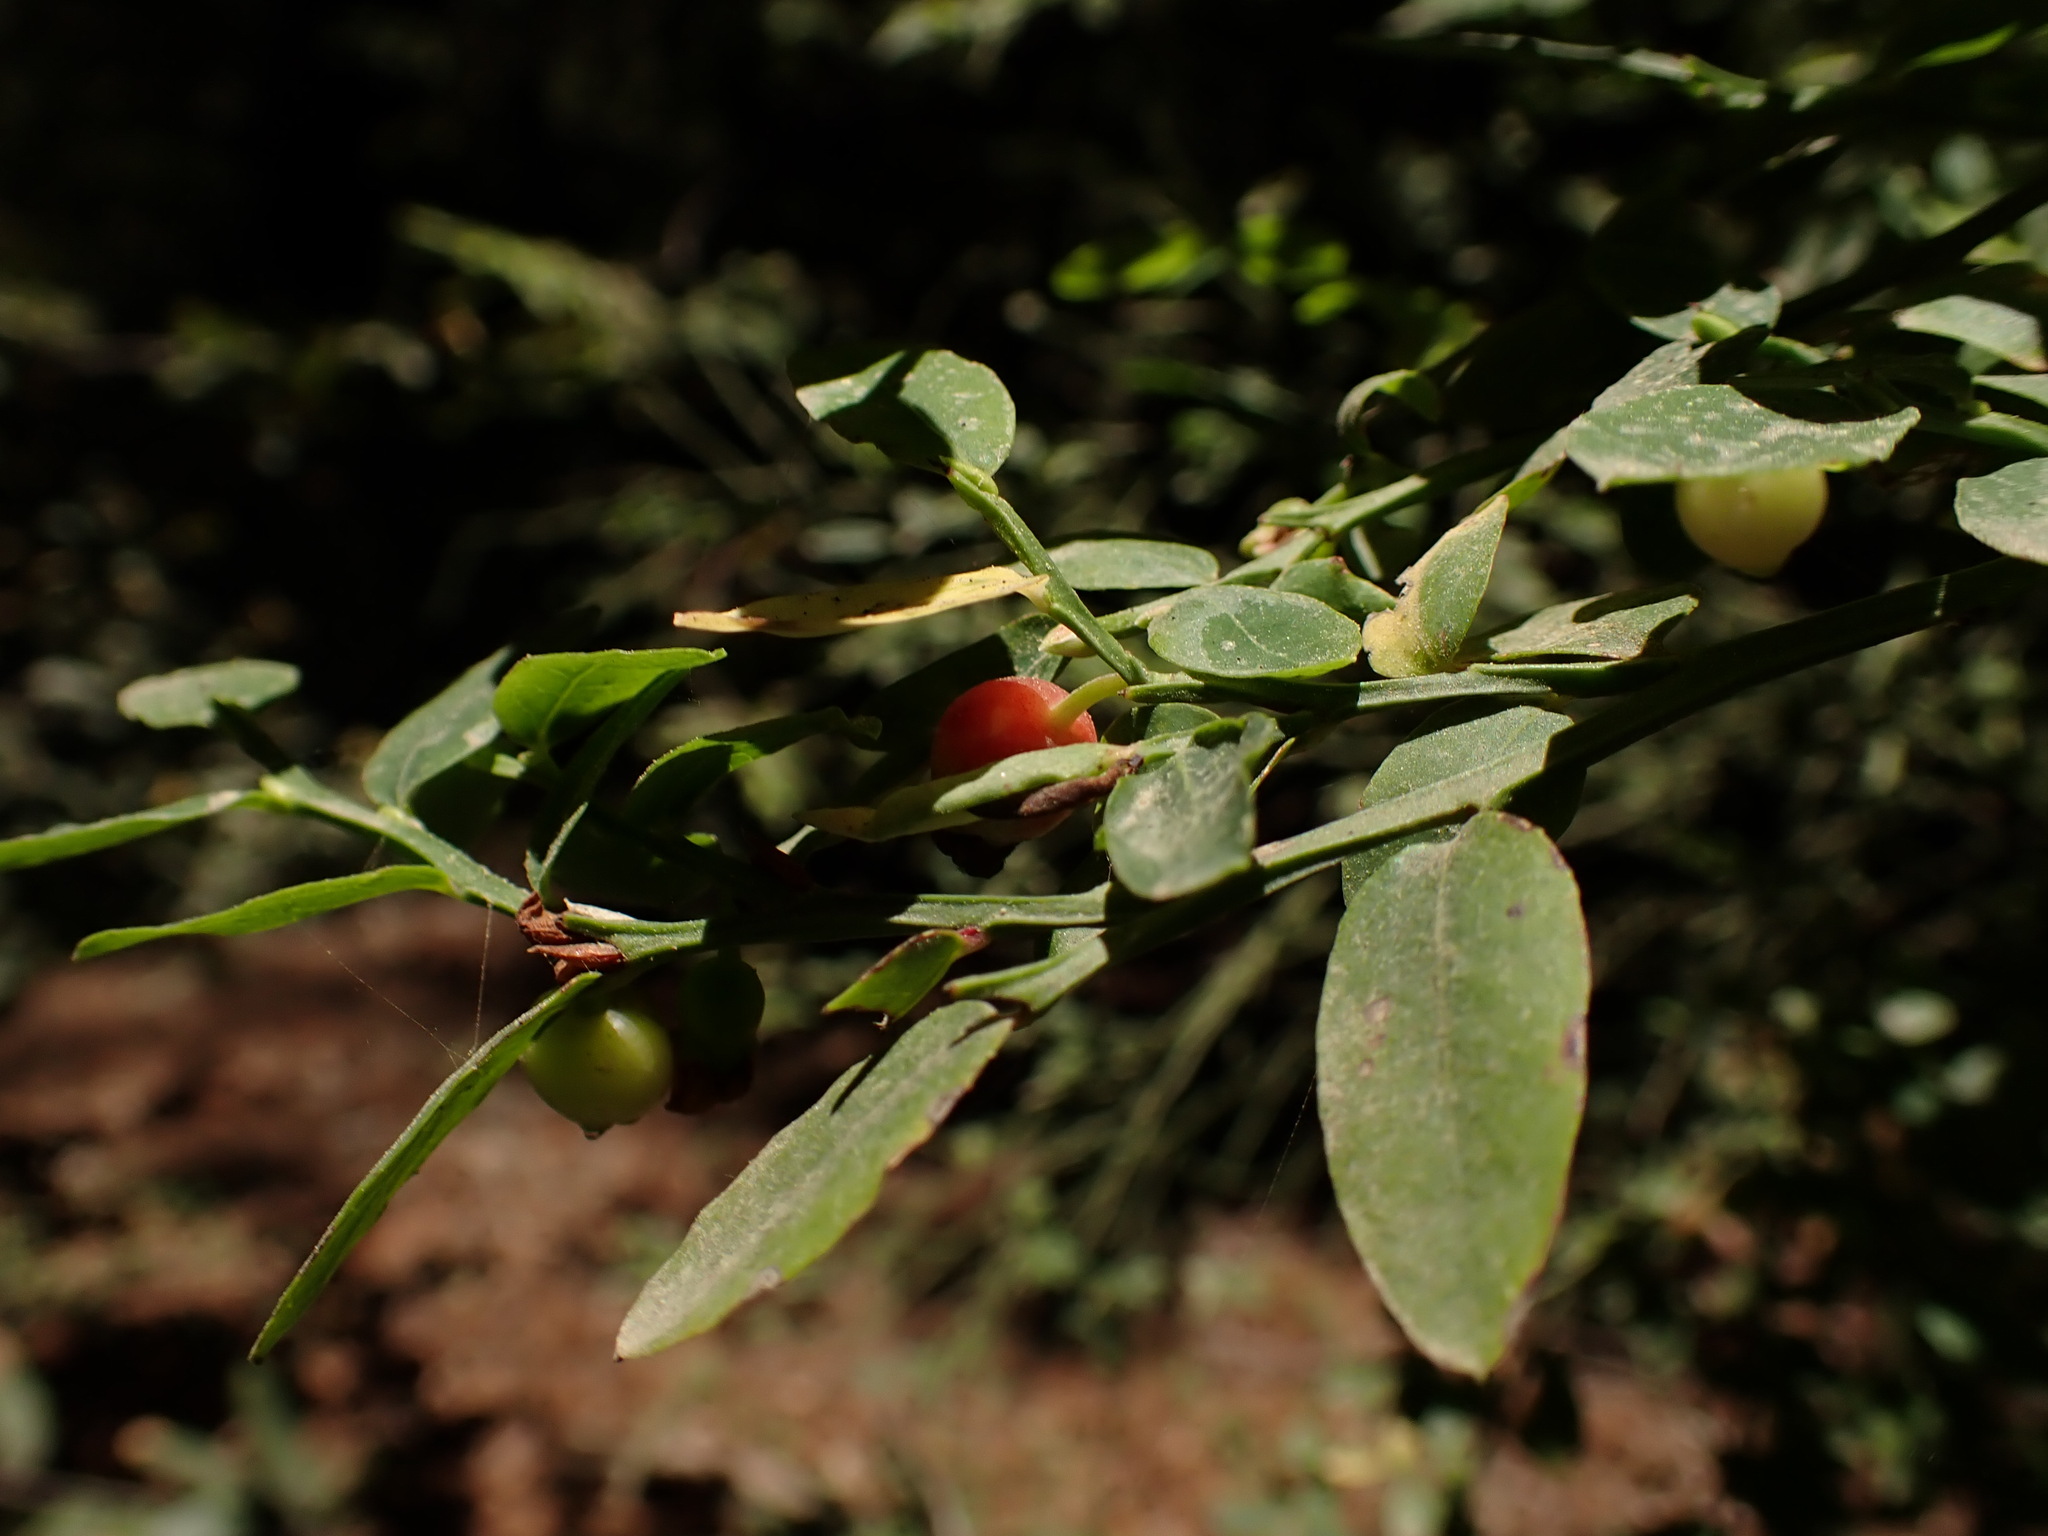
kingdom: Plantae
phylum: Tracheophyta
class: Magnoliopsida
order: Ericales
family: Ericaceae
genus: Vaccinium
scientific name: Vaccinium parvifolium
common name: Red-huckleberry
